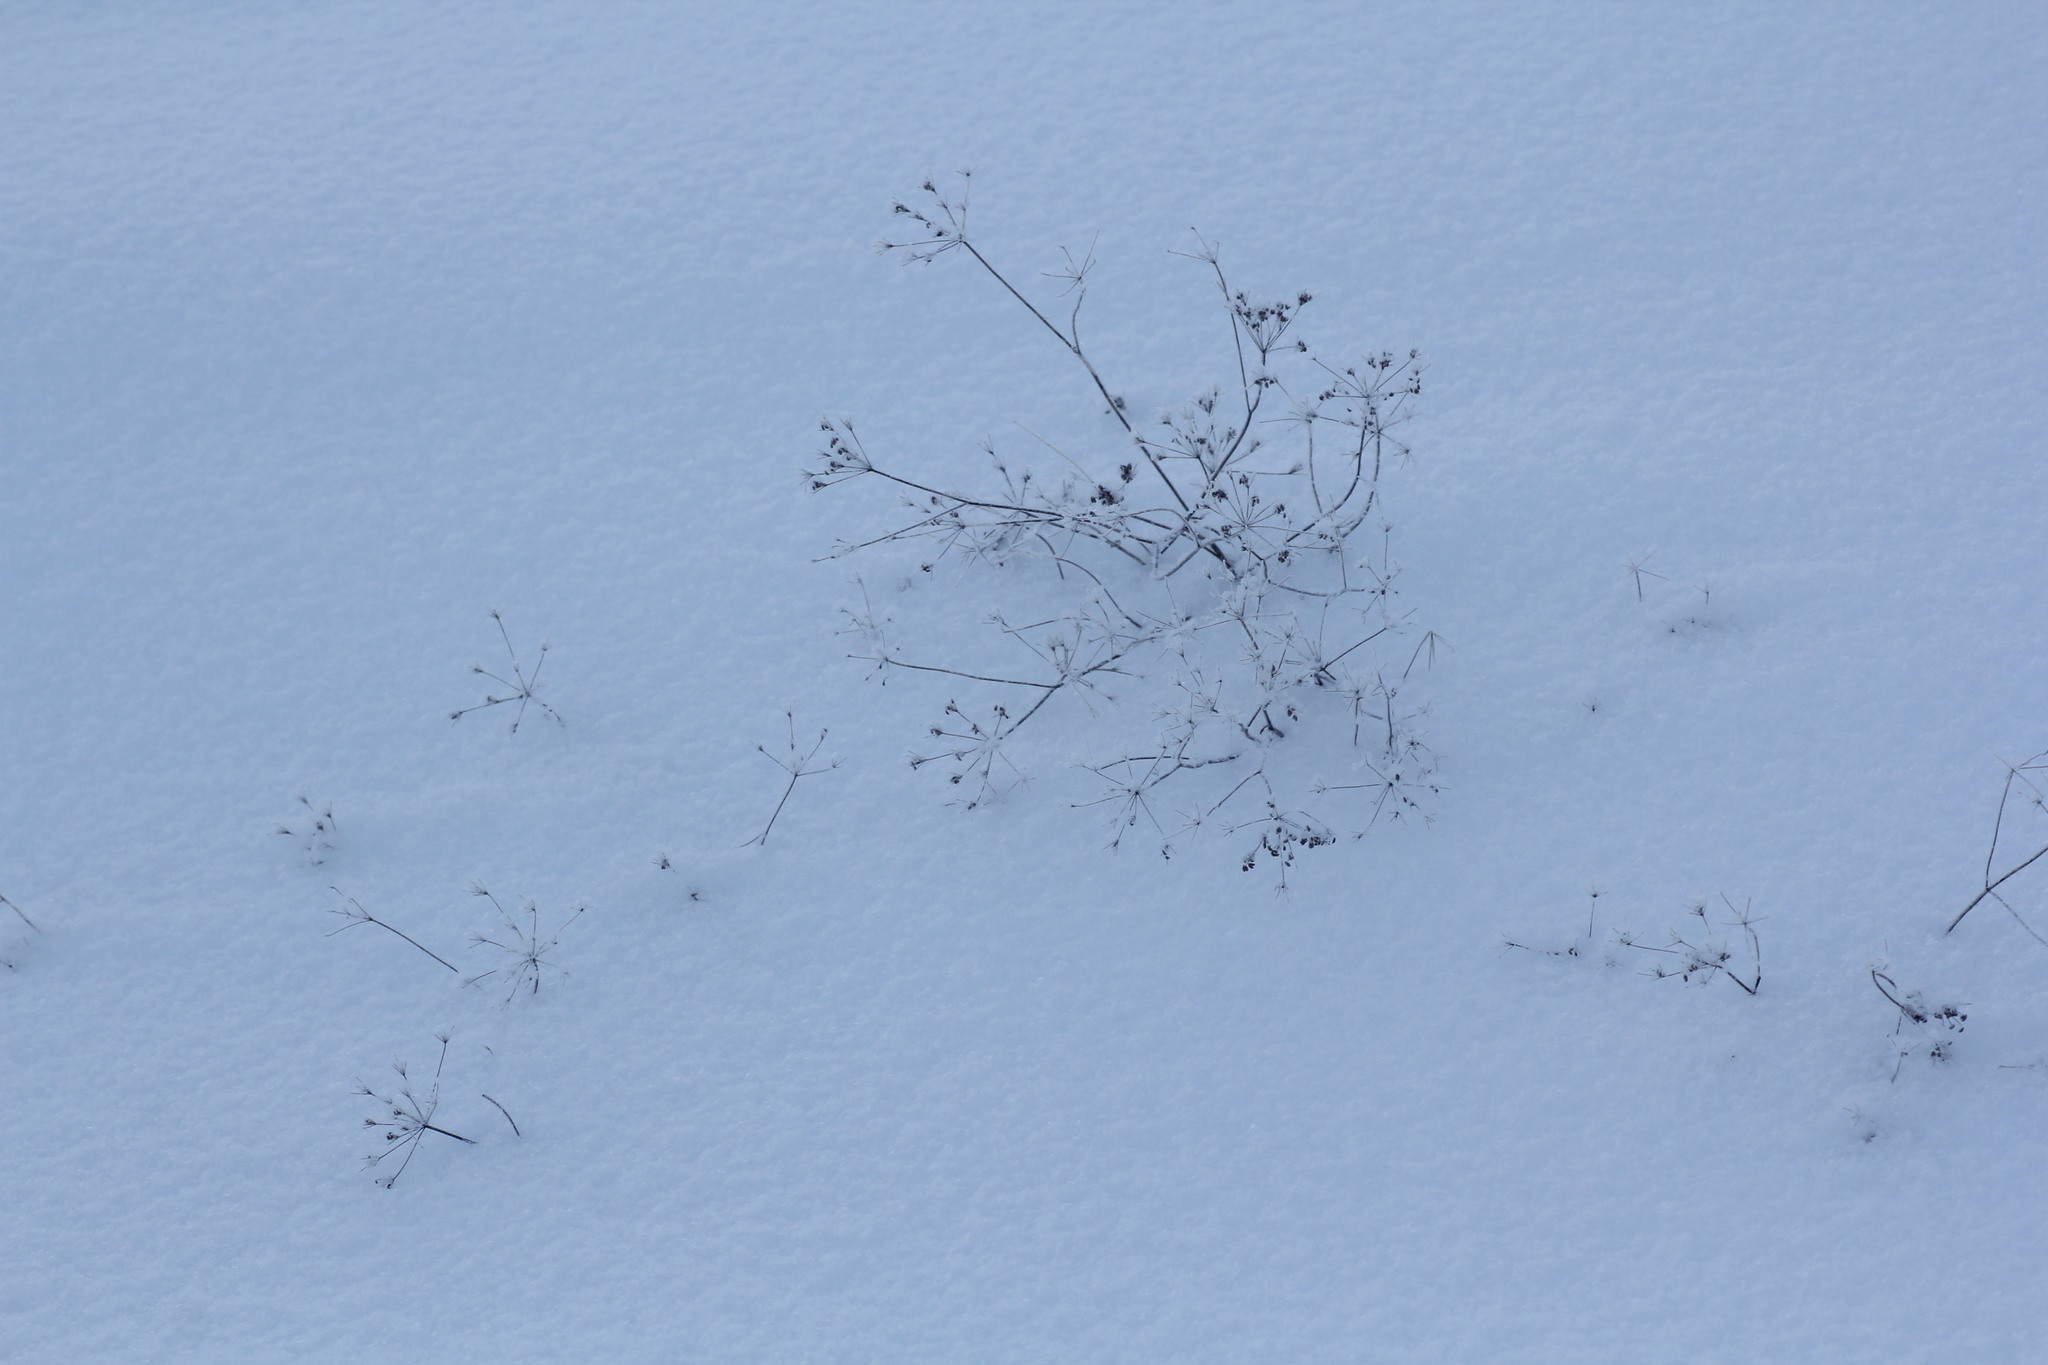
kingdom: Plantae
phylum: Tracheophyta
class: Magnoliopsida
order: Apiales
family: Apiaceae
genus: Carum
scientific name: Carum carvi
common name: Caraway
